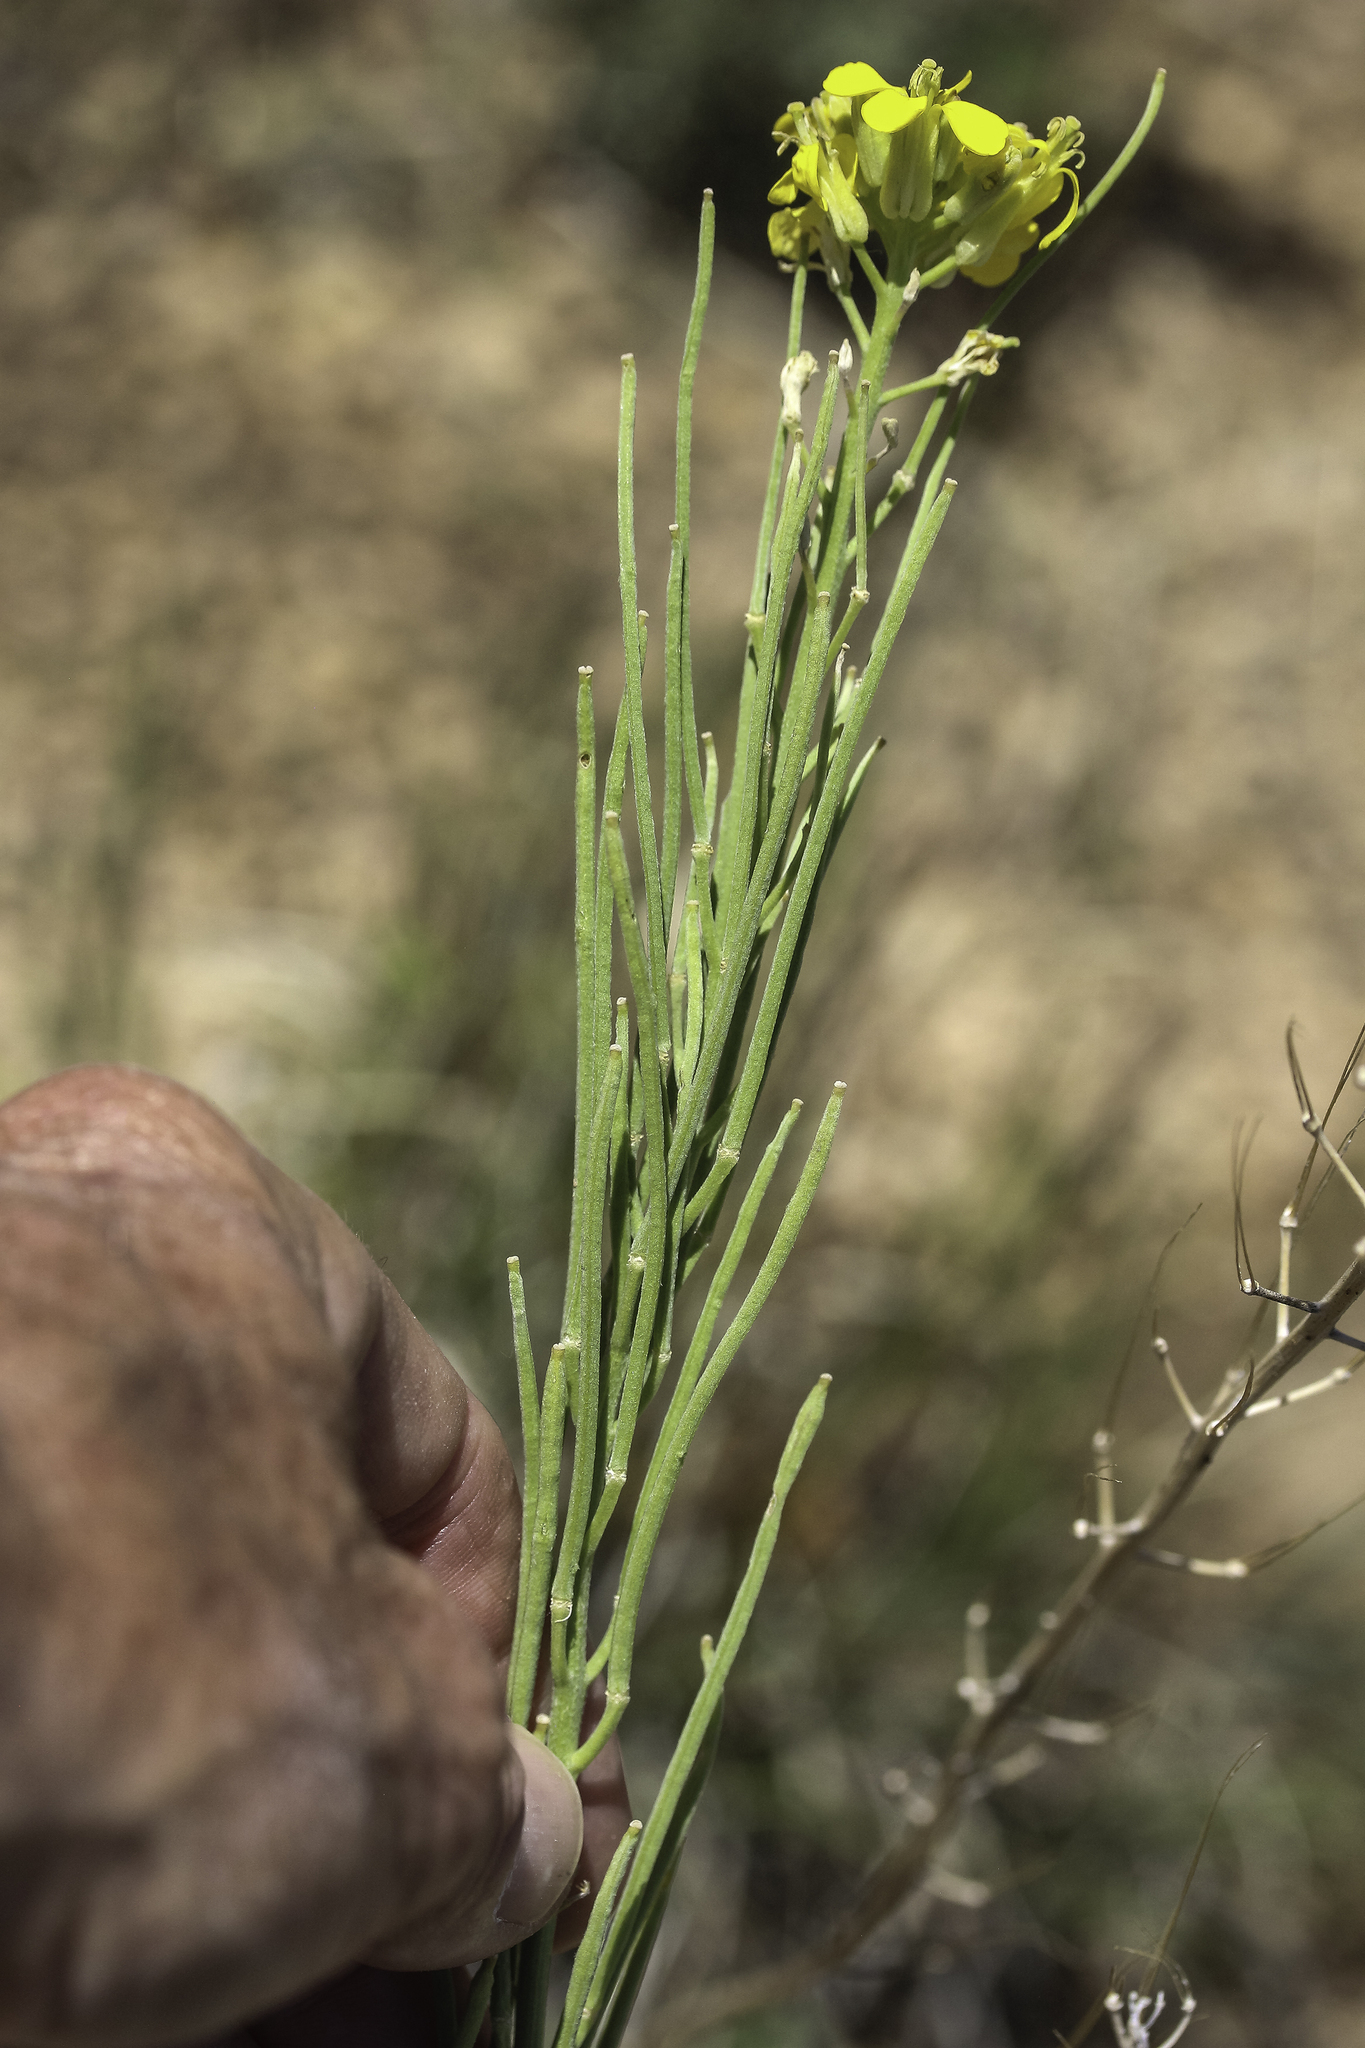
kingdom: Plantae
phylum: Tracheophyta
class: Magnoliopsida
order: Brassicales
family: Brassicaceae
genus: Erysimum
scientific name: Erysimum capitatum
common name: Western wallflower
